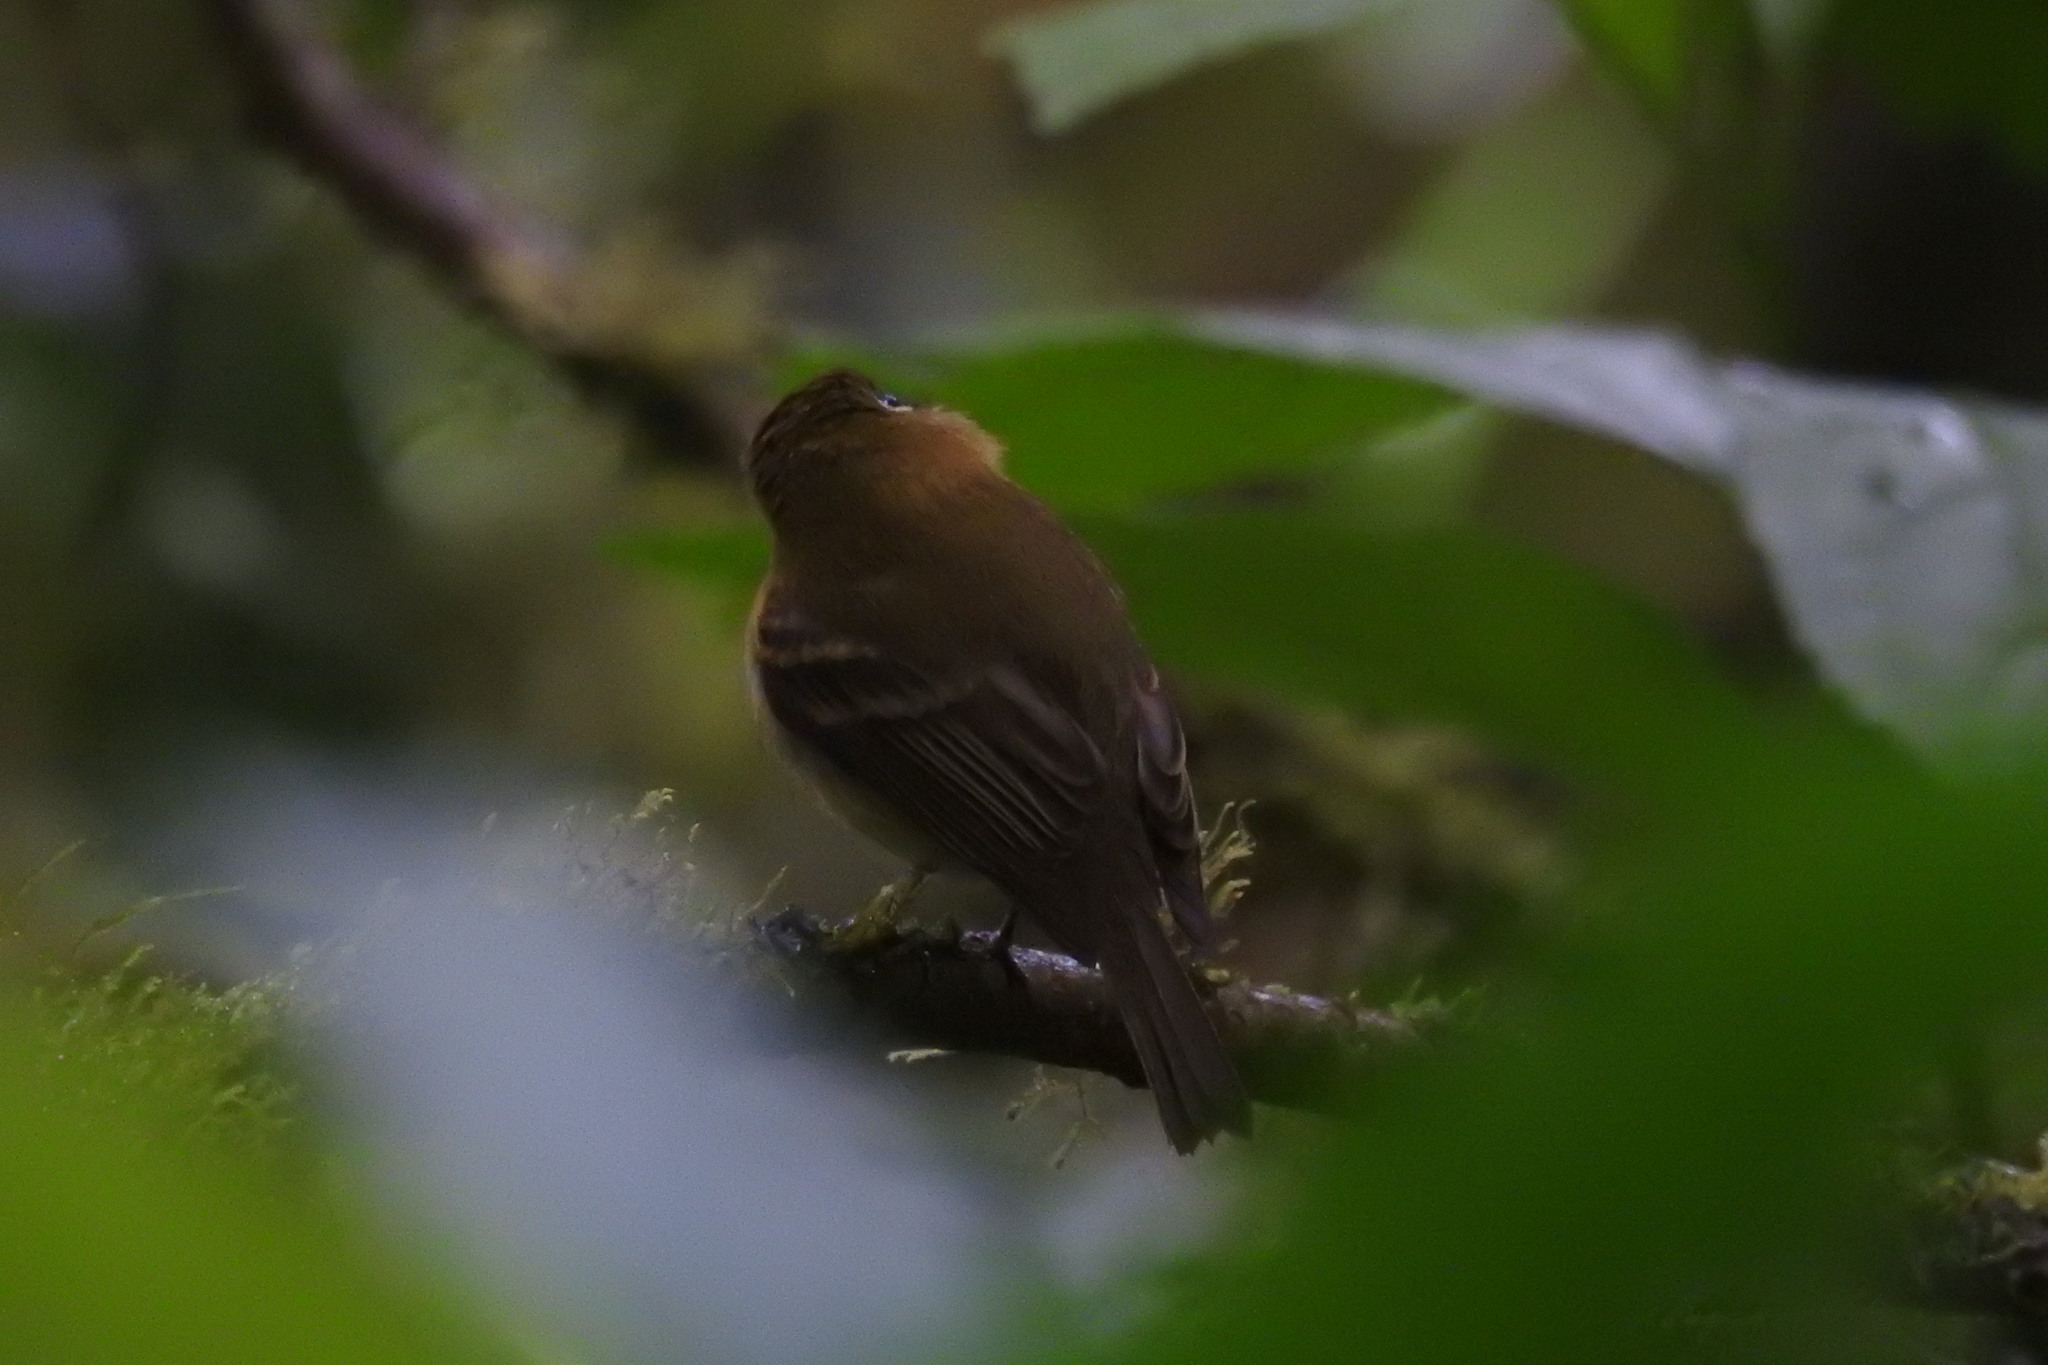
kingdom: Animalia
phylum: Chordata
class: Aves
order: Passeriformes
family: Tyrannidae
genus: Empidonax
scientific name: Empidonax flavescens
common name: Yellowish flycatcher
